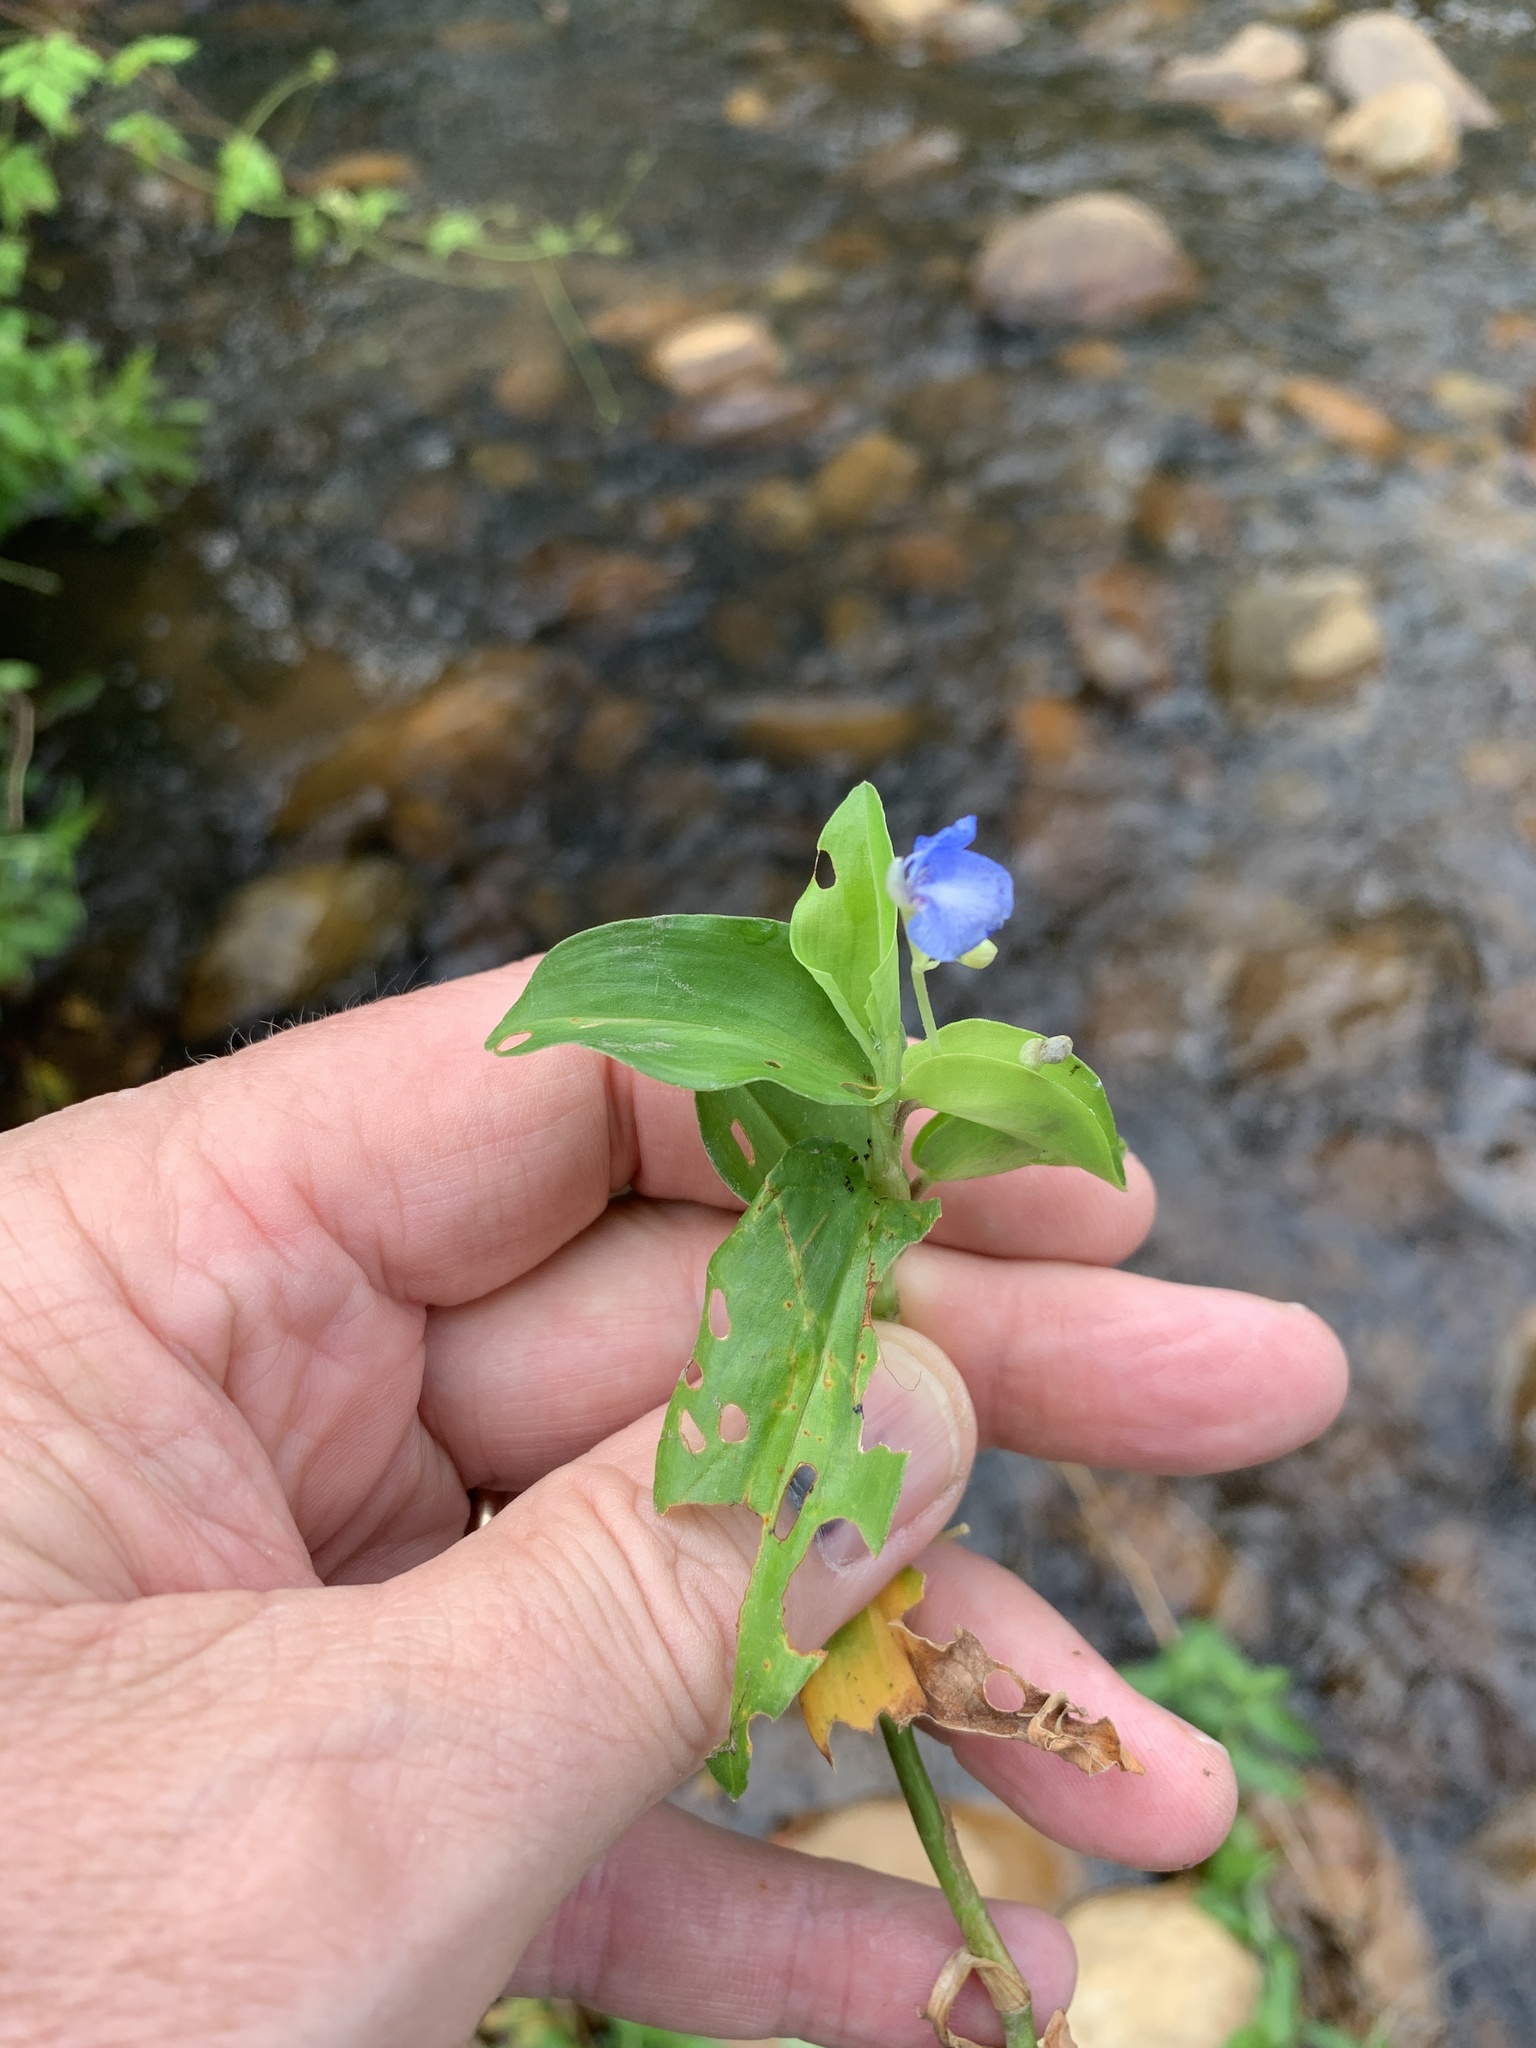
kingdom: Plantae
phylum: Tracheophyta
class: Liliopsida
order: Commelinales
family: Commelinaceae
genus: Commelina
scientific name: Commelina diffusa
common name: Climbing dayflower
